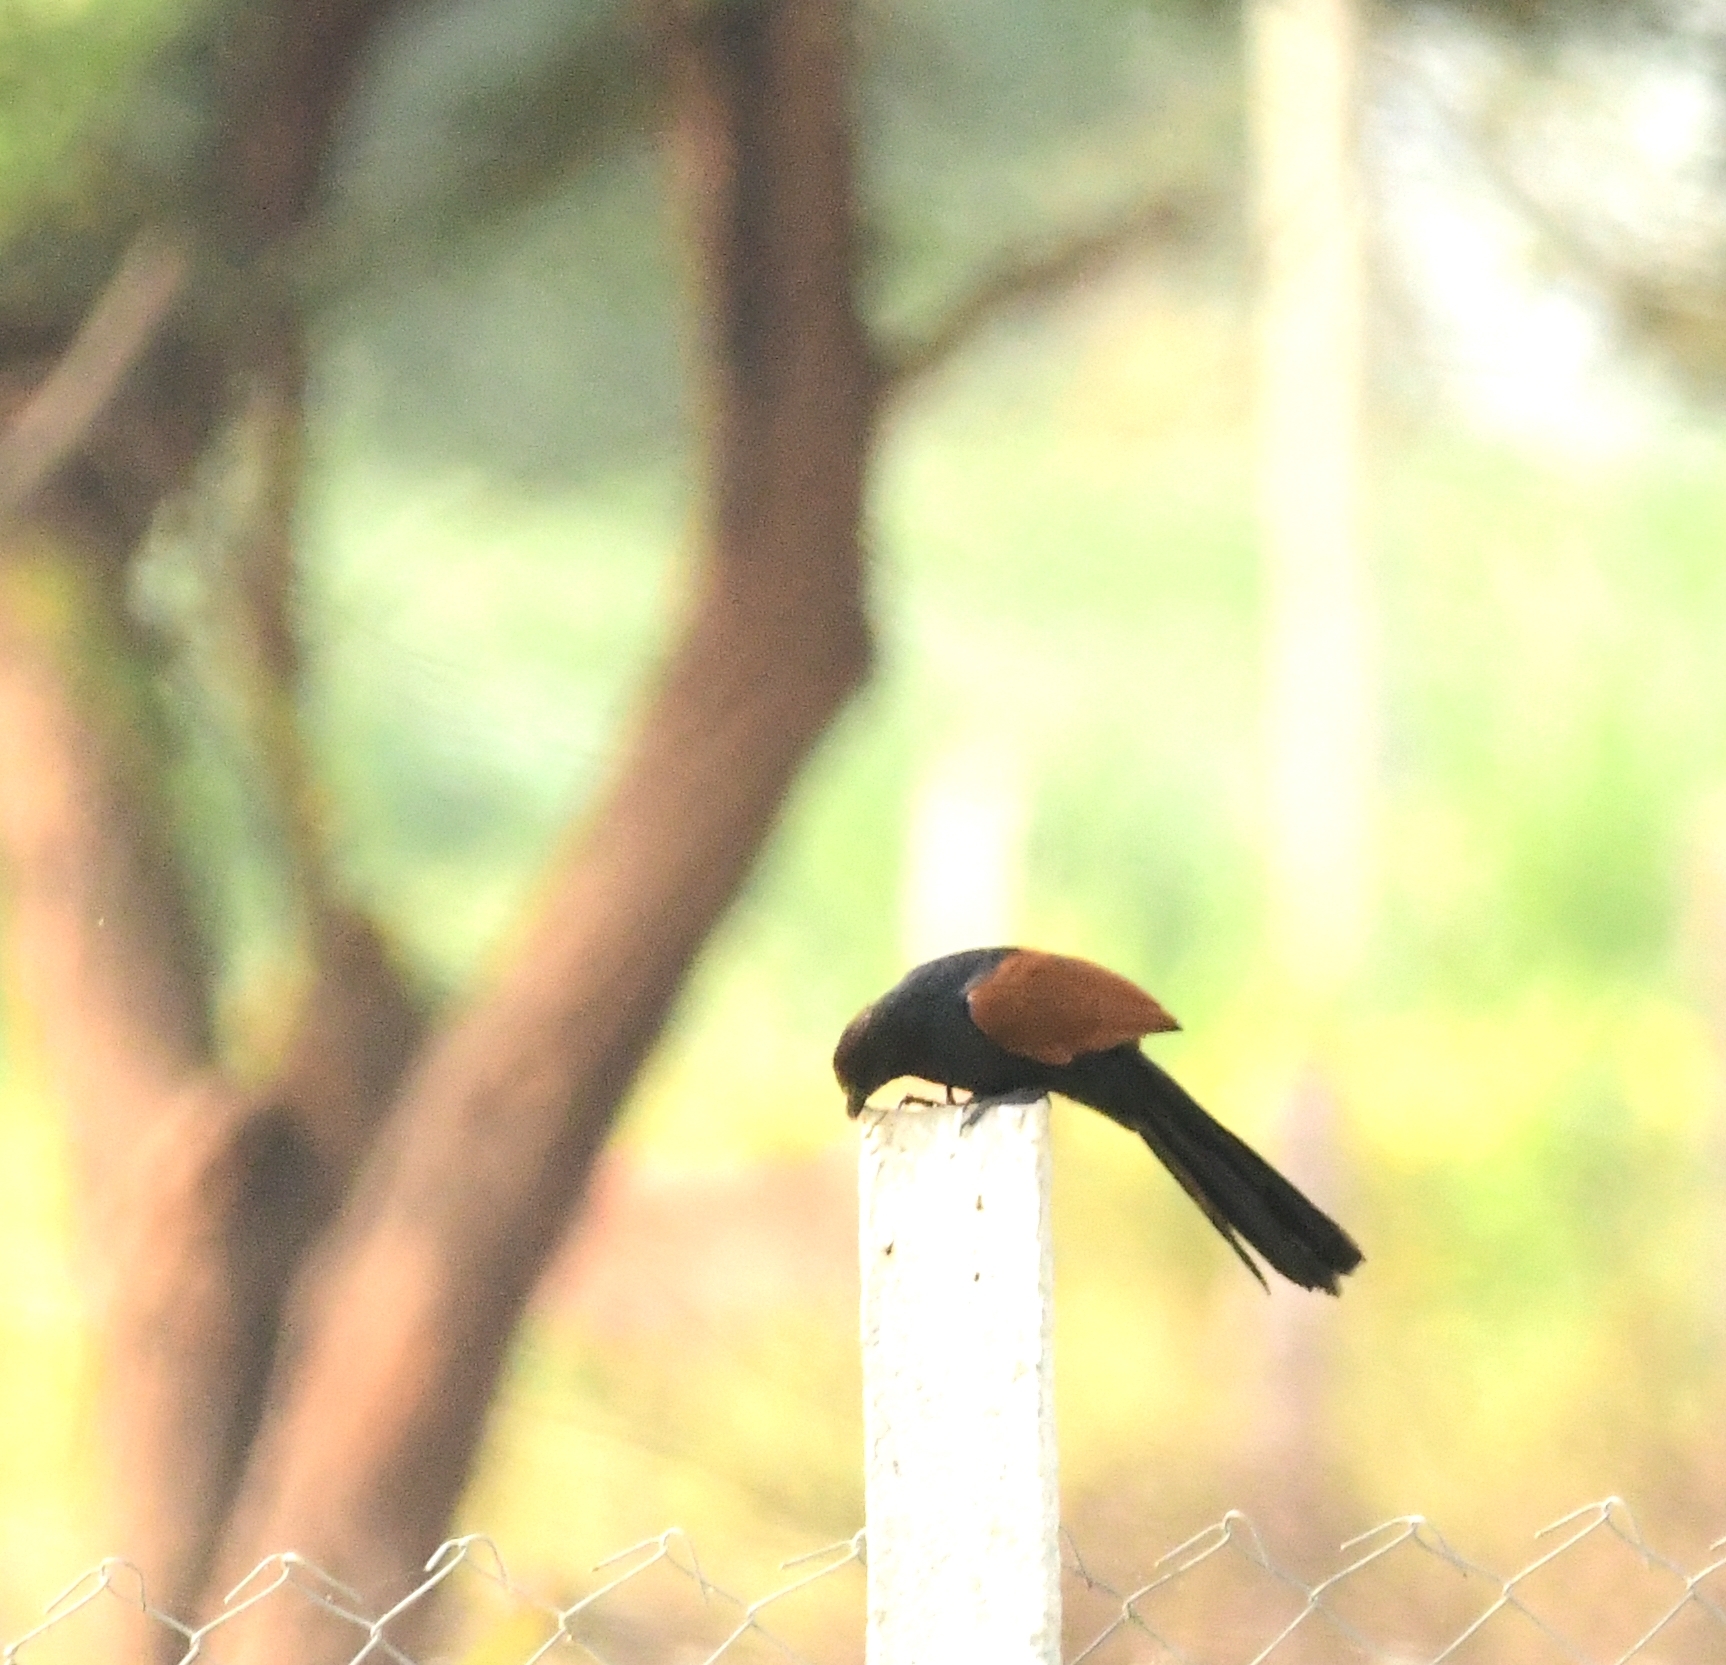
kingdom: Animalia
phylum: Chordata
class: Aves
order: Cuculiformes
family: Cuculidae
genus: Centropus
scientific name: Centropus sinensis
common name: Greater coucal
